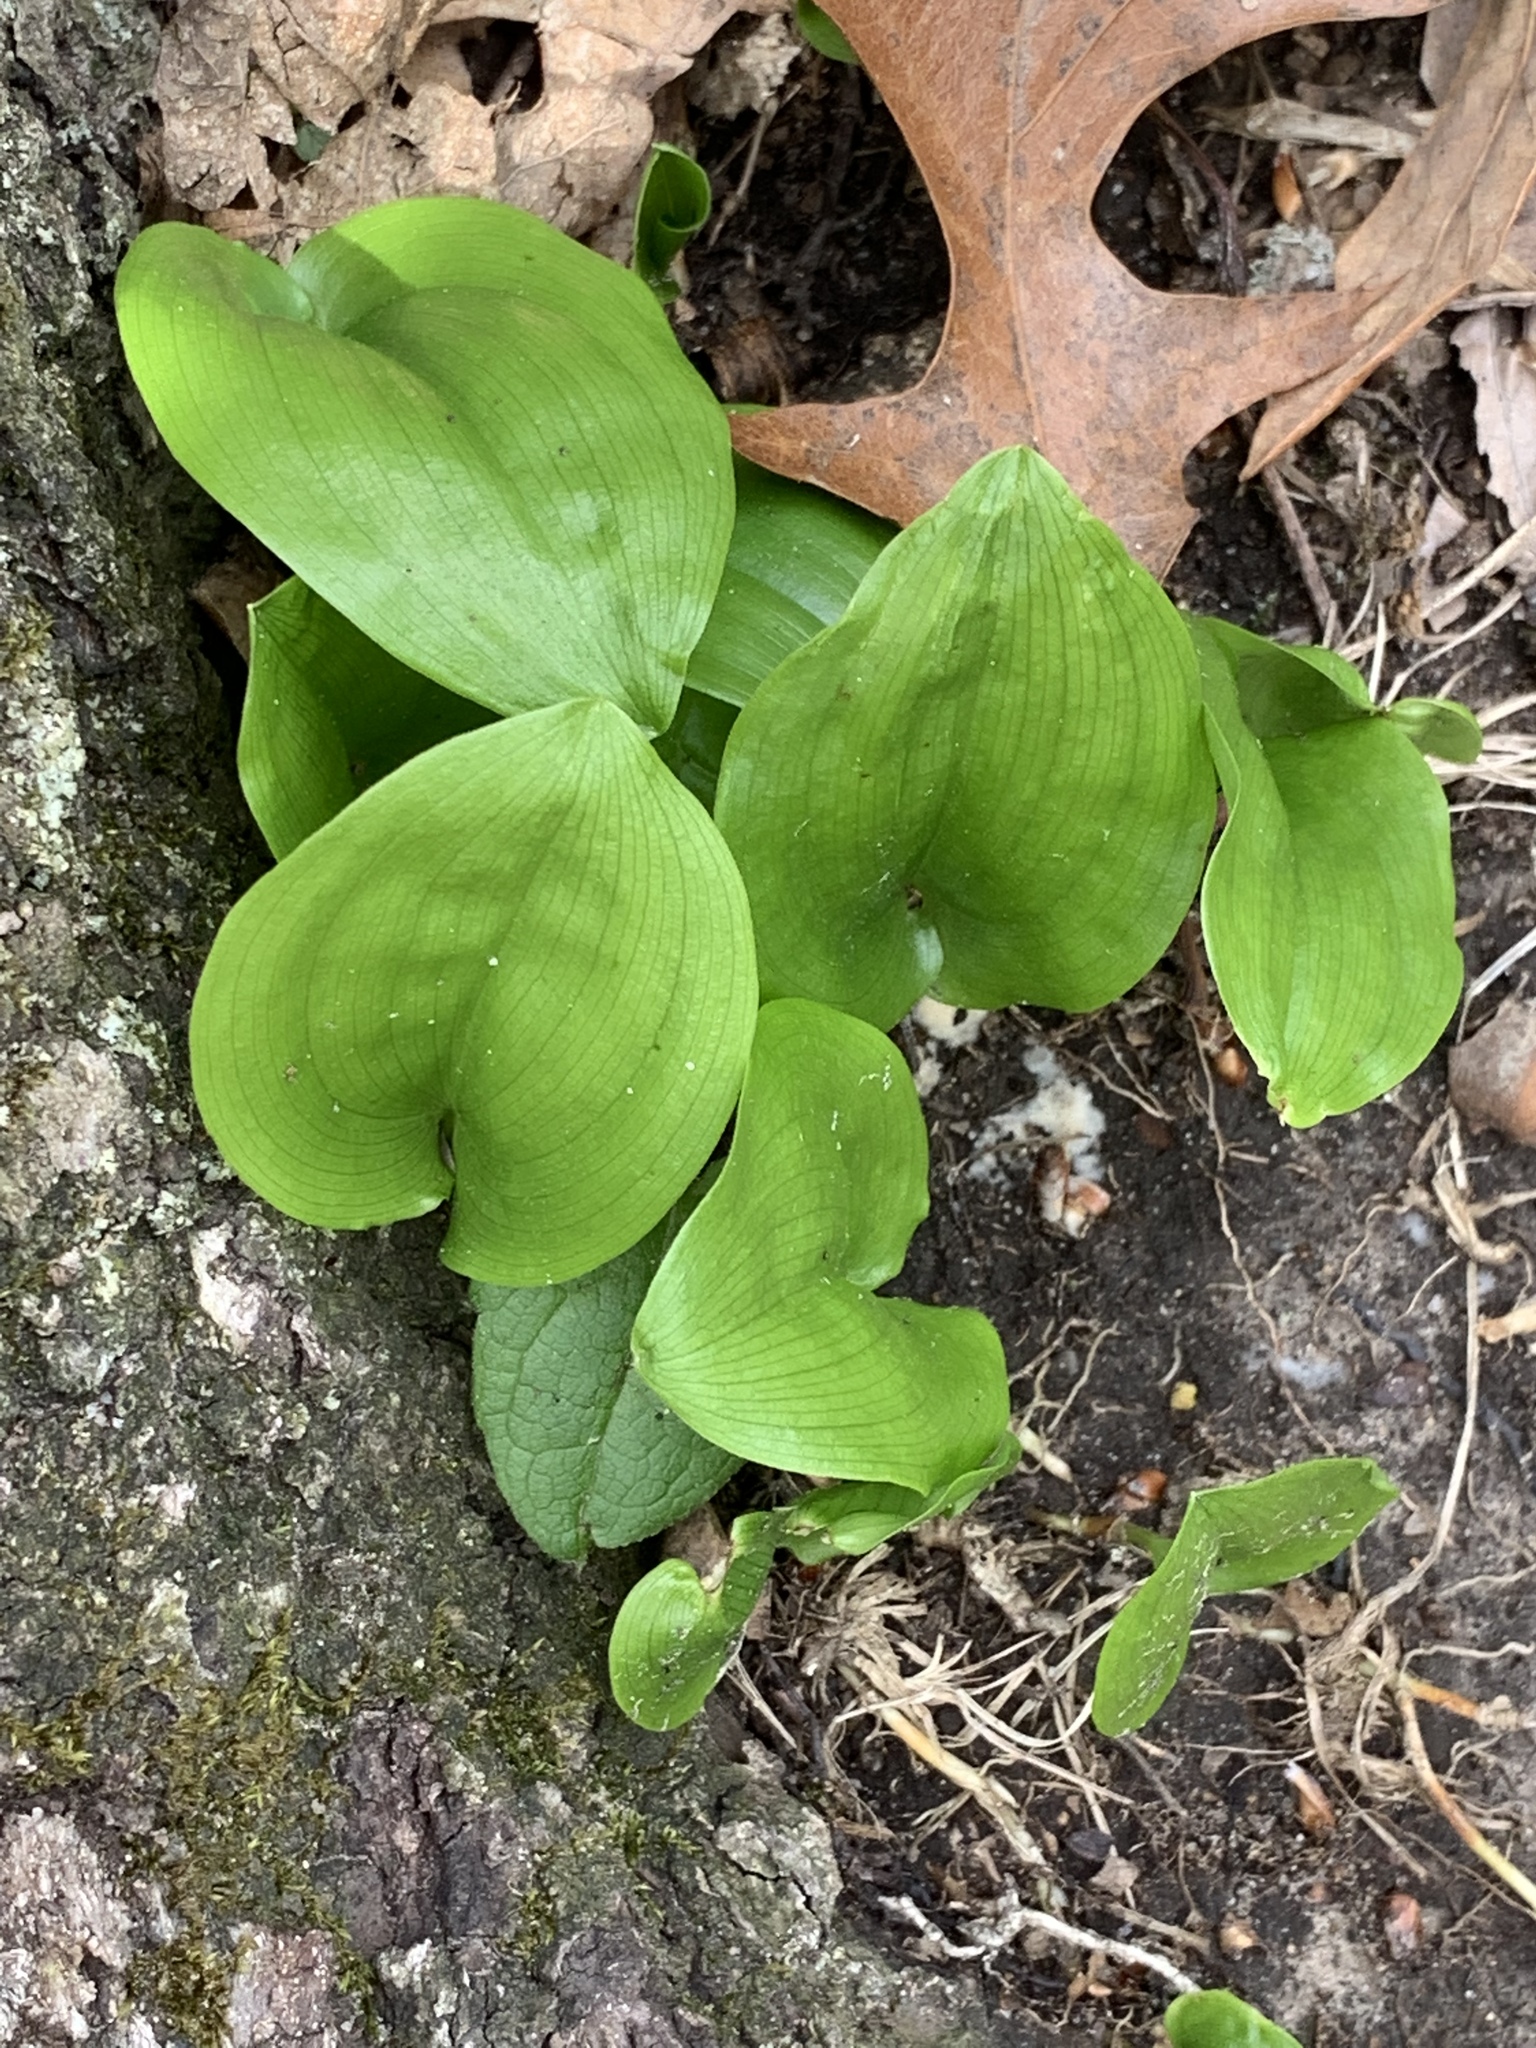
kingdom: Plantae
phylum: Tracheophyta
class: Liliopsida
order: Asparagales
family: Asparagaceae
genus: Maianthemum
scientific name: Maianthemum canadense
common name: False lily-of-the-valley
